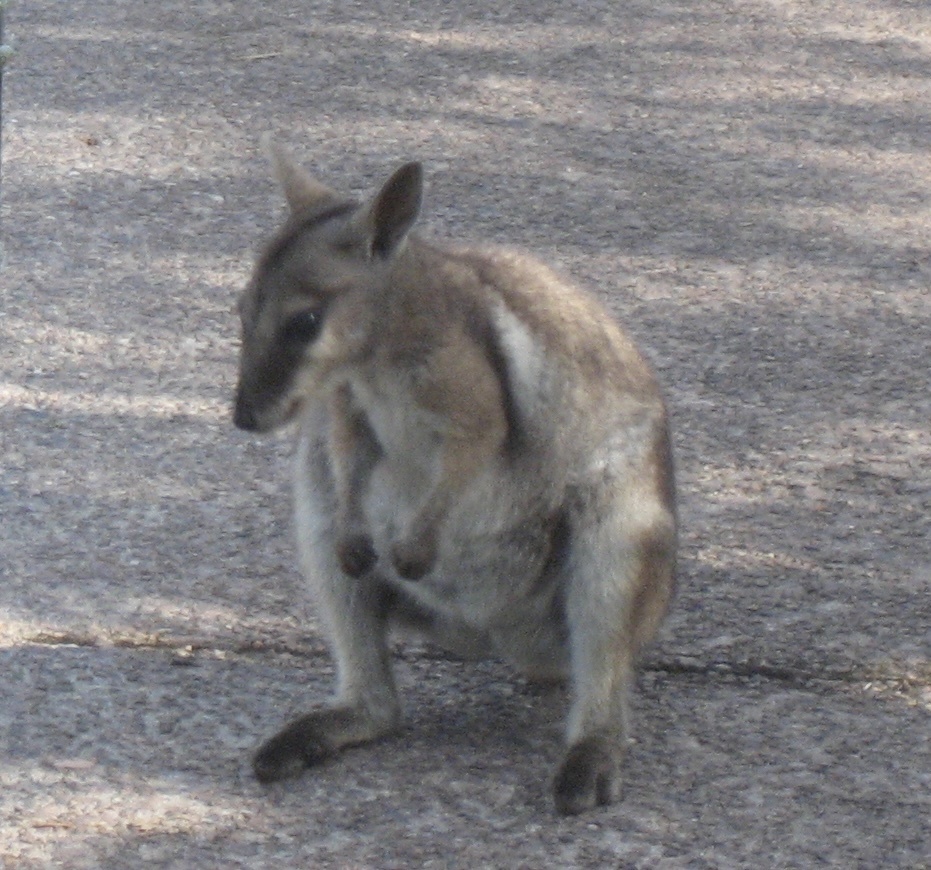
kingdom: Animalia
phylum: Chordata
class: Mammalia
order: Diprotodontia
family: Macropodidae
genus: Petrogale
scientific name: Petrogale wilkinsi
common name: Wilkins’s rock wallaby
